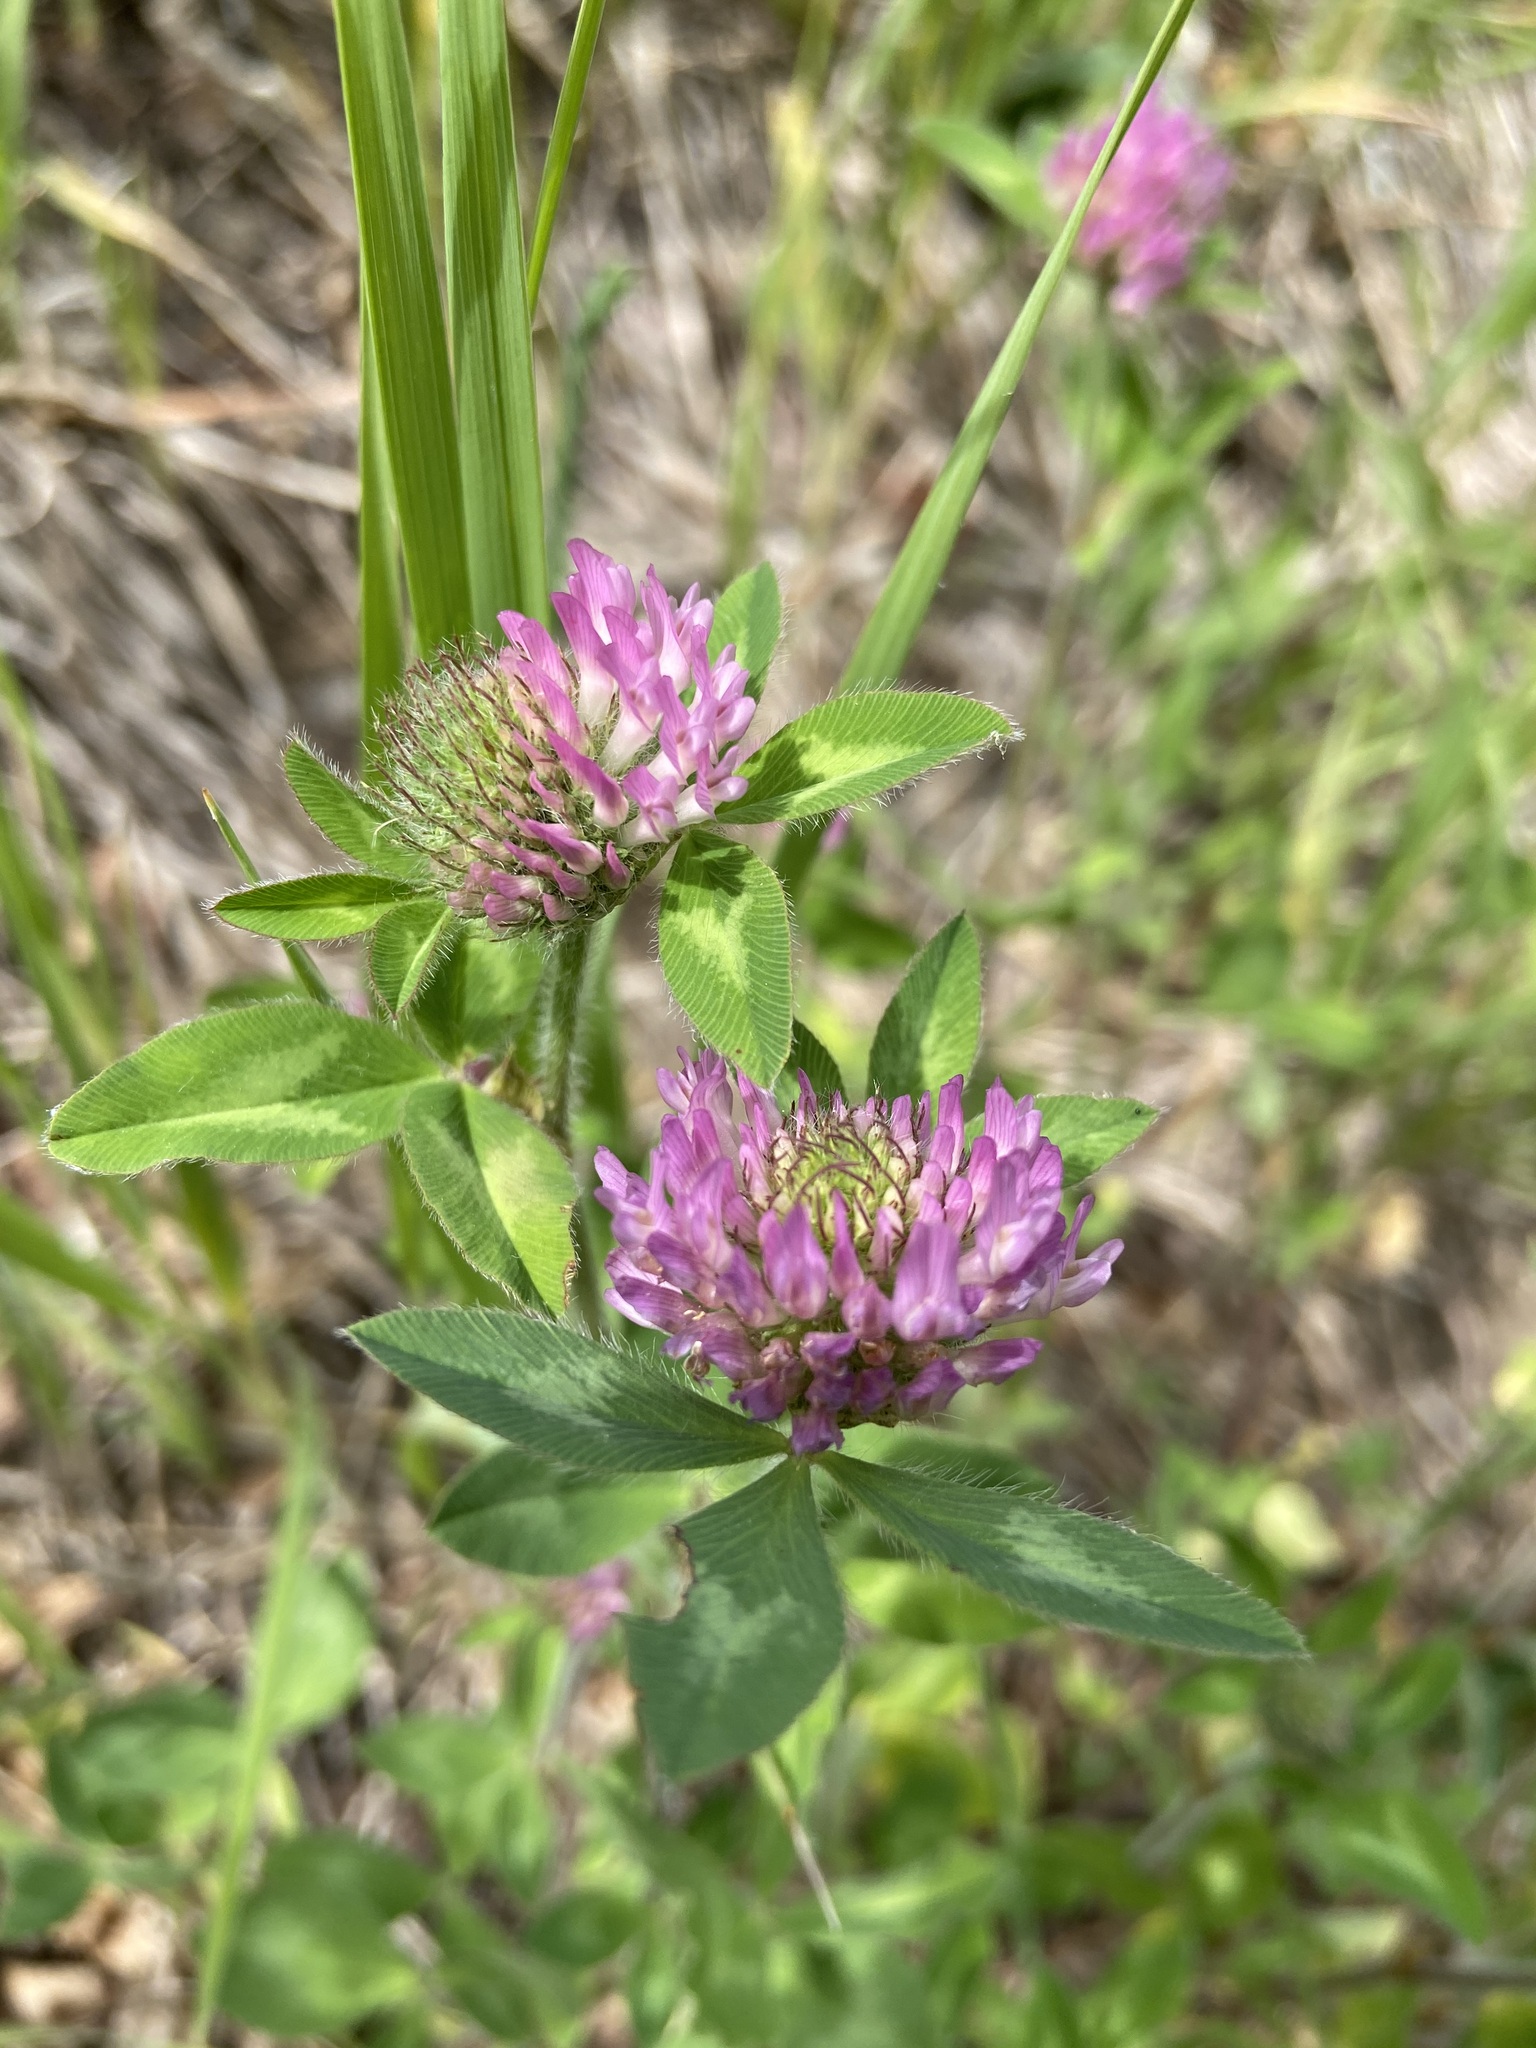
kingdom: Plantae
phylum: Tracheophyta
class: Magnoliopsida
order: Fabales
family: Fabaceae
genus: Trifolium
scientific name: Trifolium pratense
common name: Red clover
